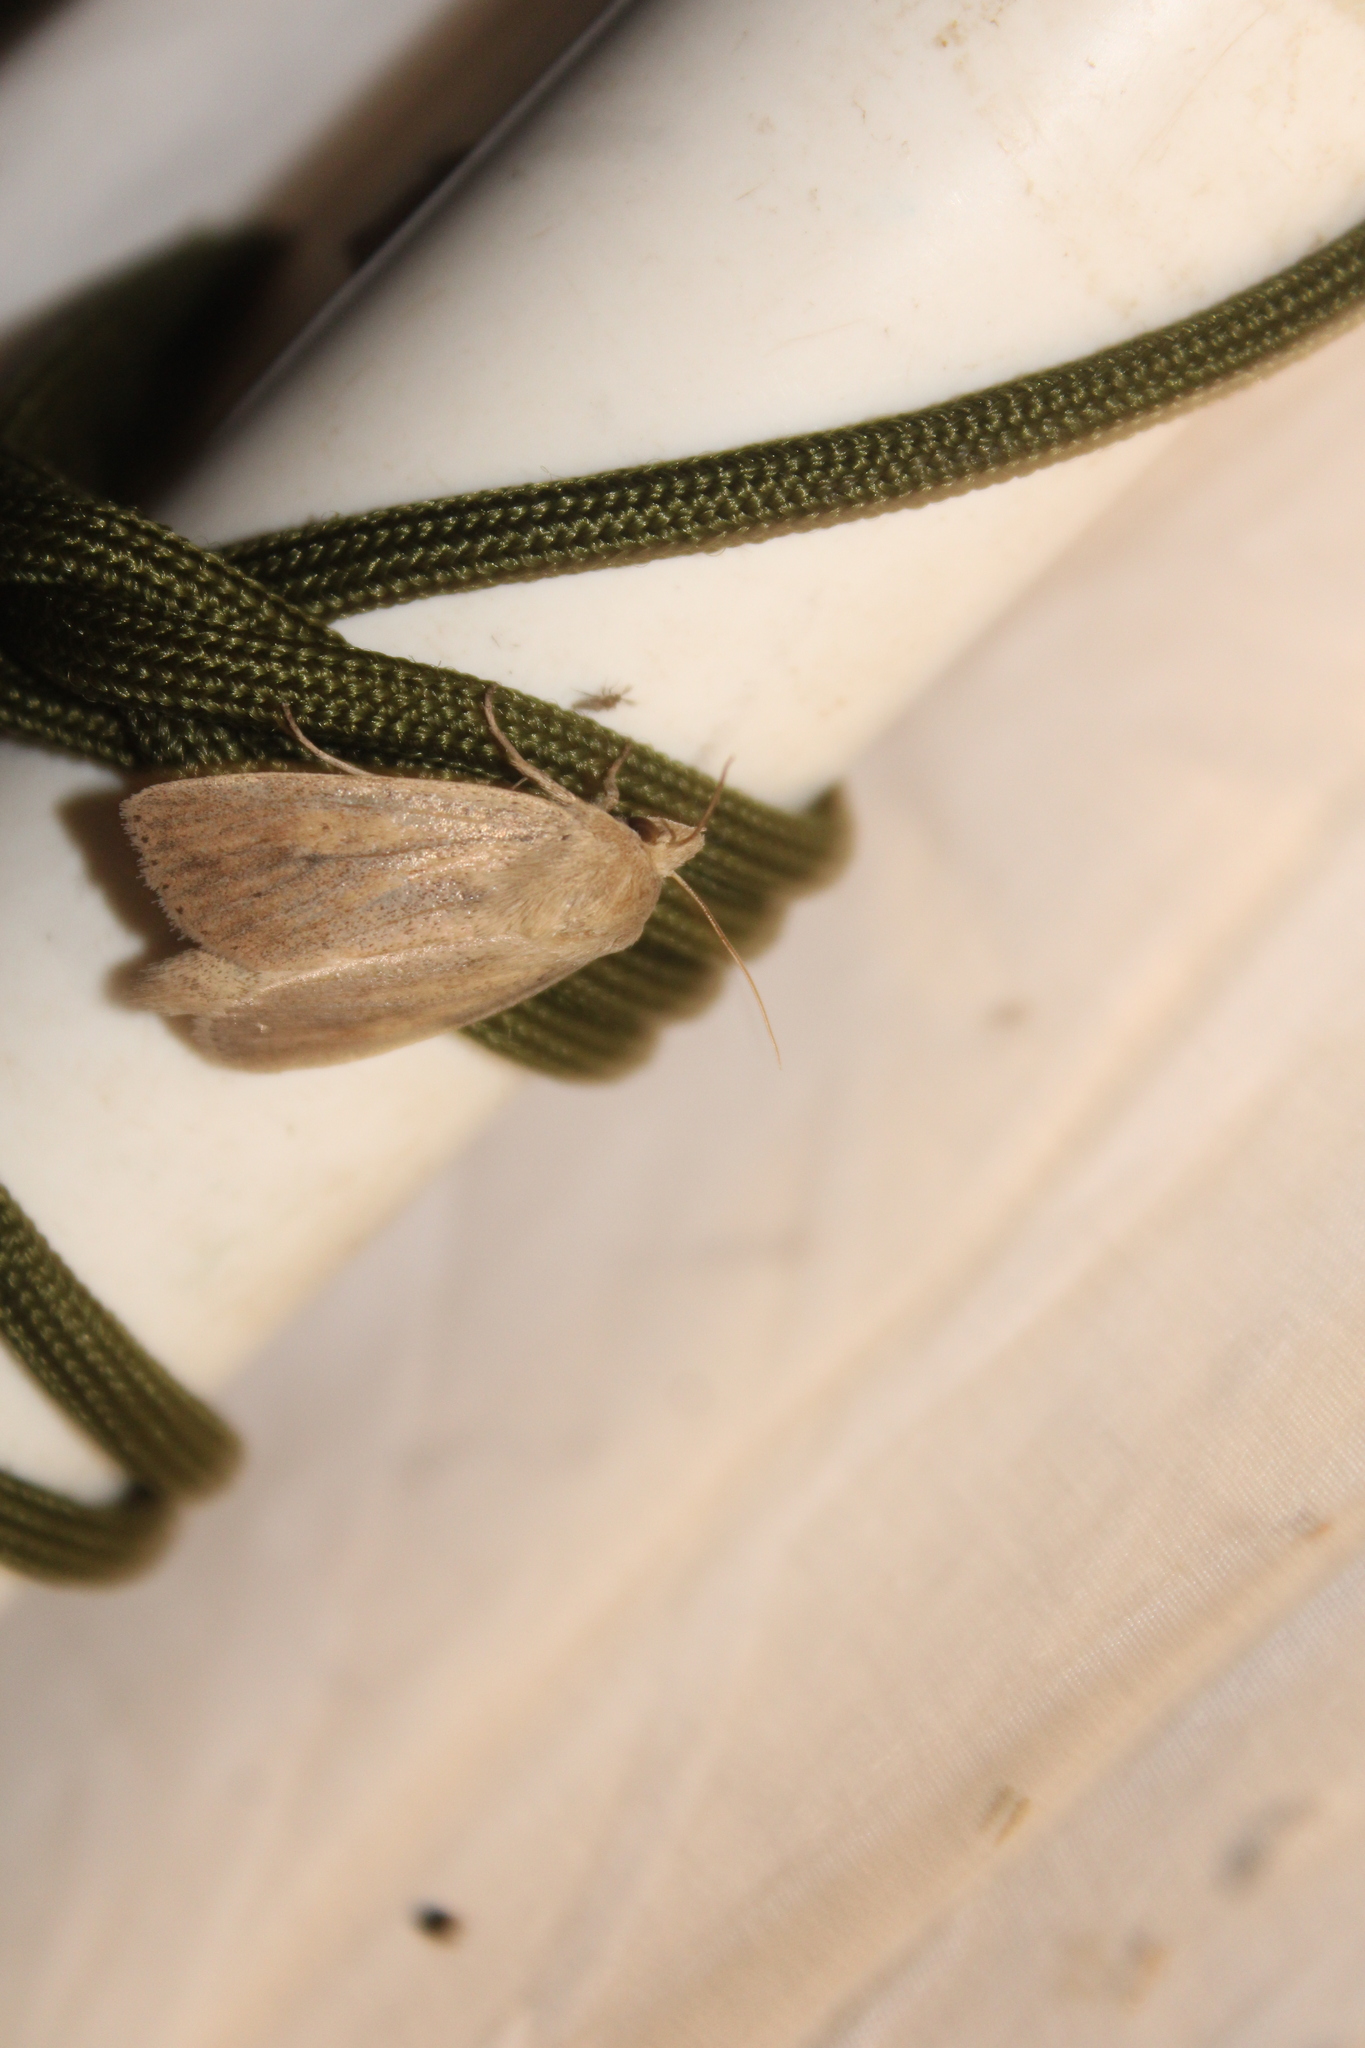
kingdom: Animalia
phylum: Arthropoda
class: Insecta
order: Lepidoptera
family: Noctuidae
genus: Globia
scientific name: Globia oblonga
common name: Oblong sedge borer moth
